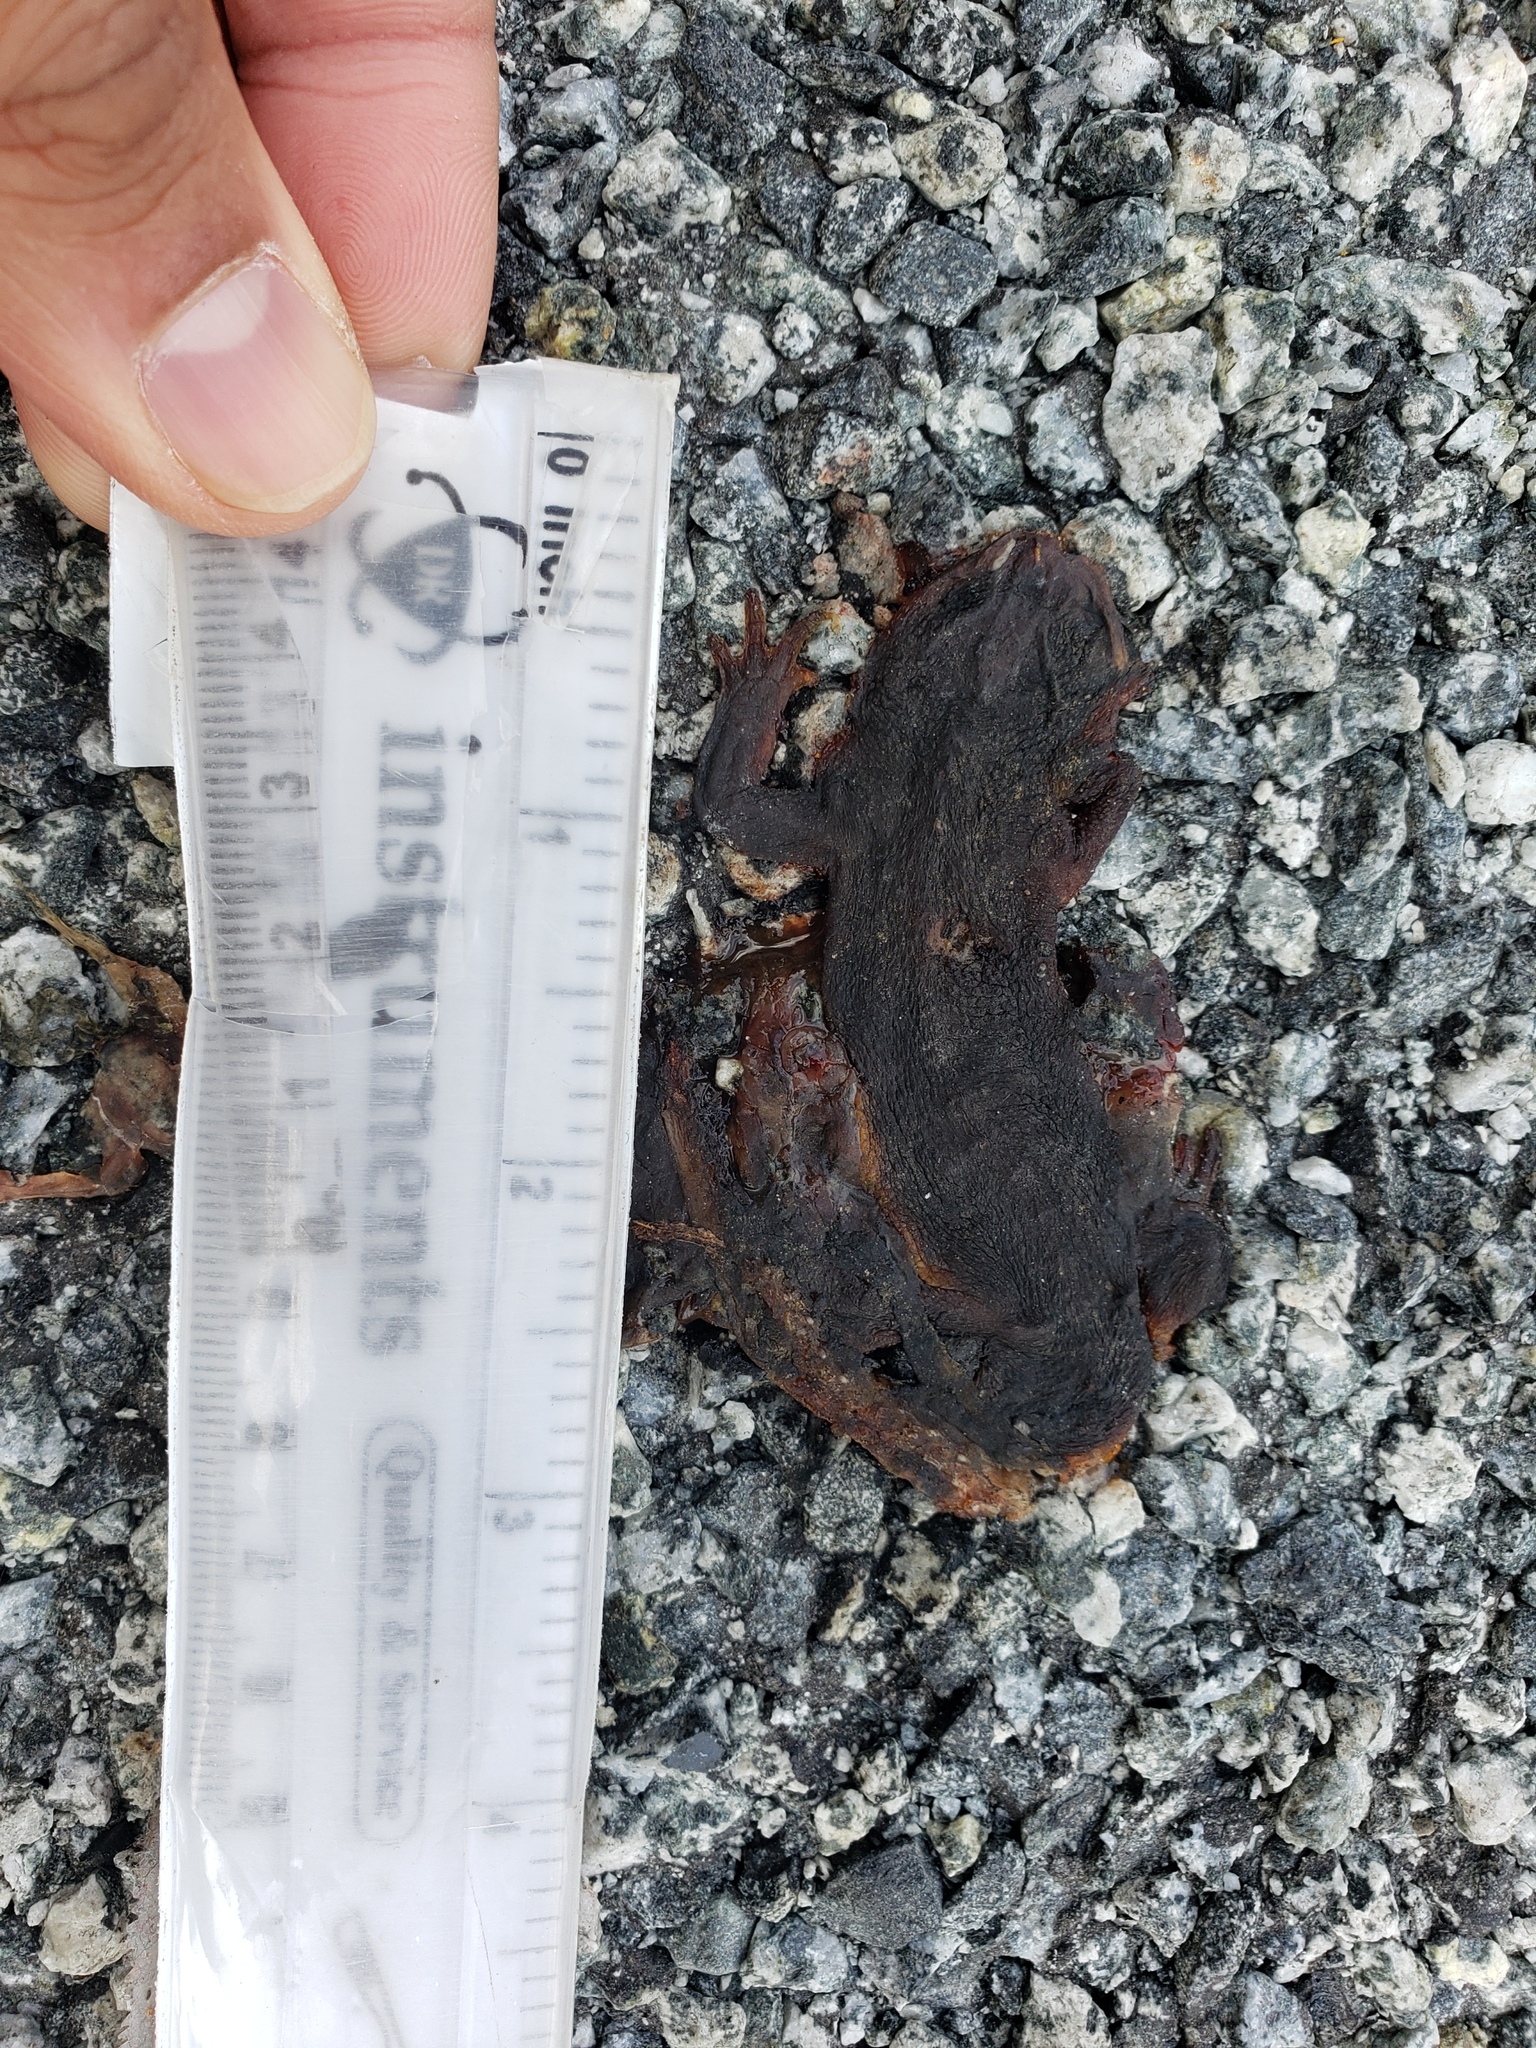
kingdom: Animalia
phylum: Chordata
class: Amphibia
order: Caudata
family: Salamandridae
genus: Taricha
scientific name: Taricha
